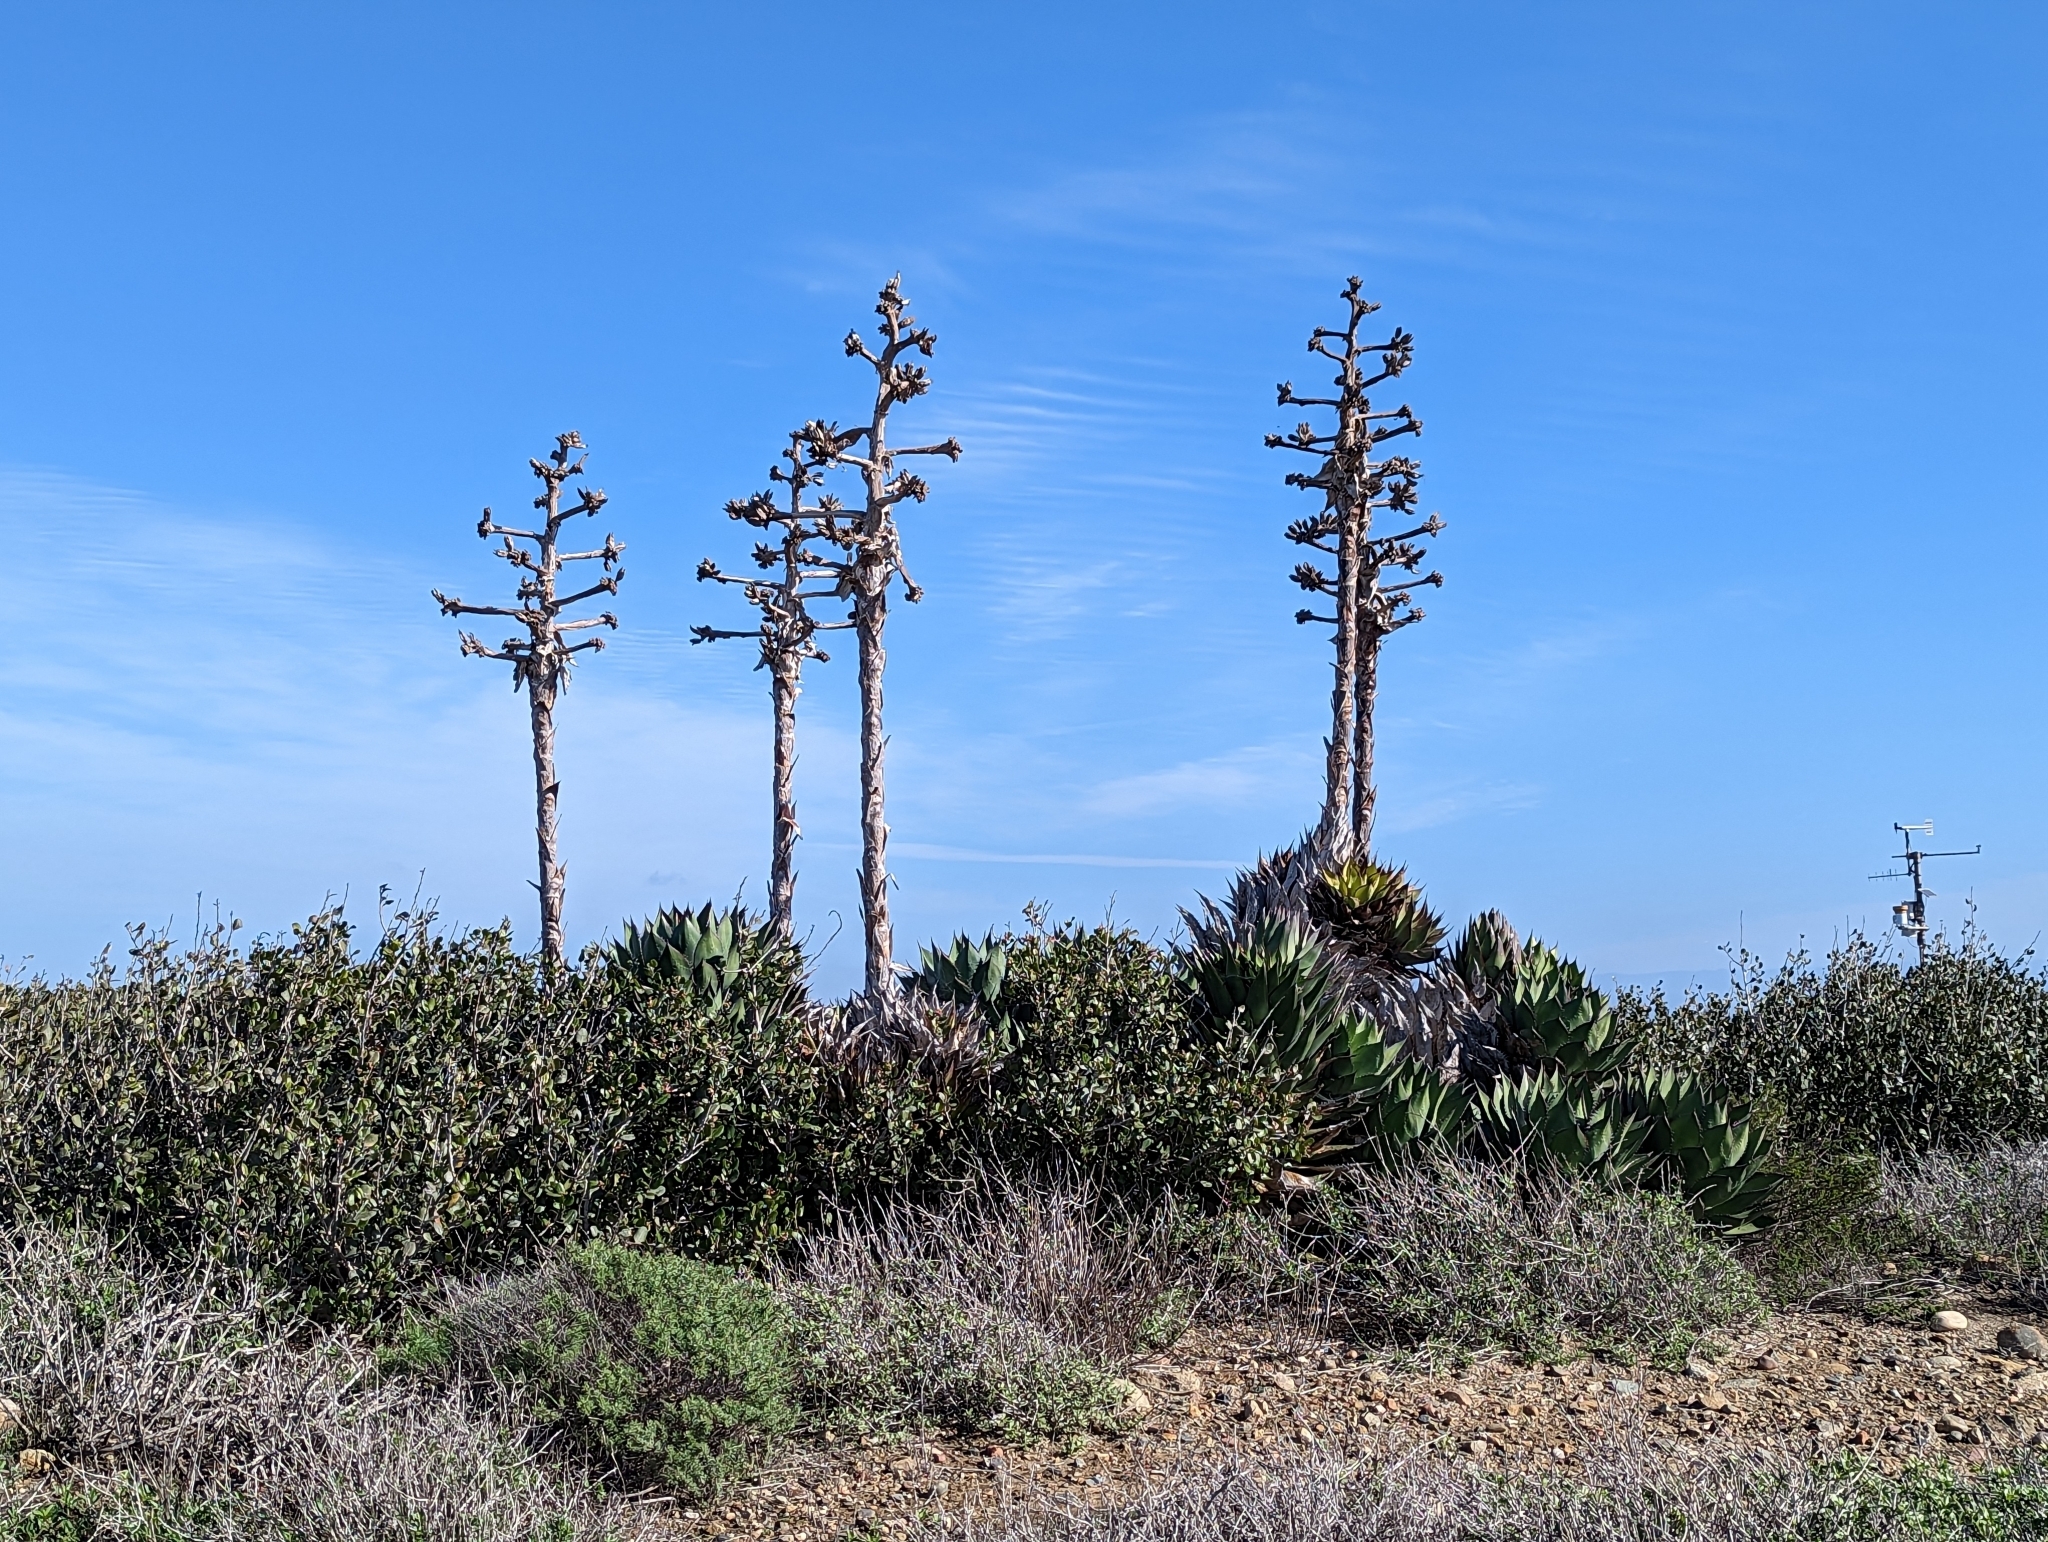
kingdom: Plantae
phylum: Tracheophyta
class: Liliopsida
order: Asparagales
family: Asparagaceae
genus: Agave
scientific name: Agave shawii
